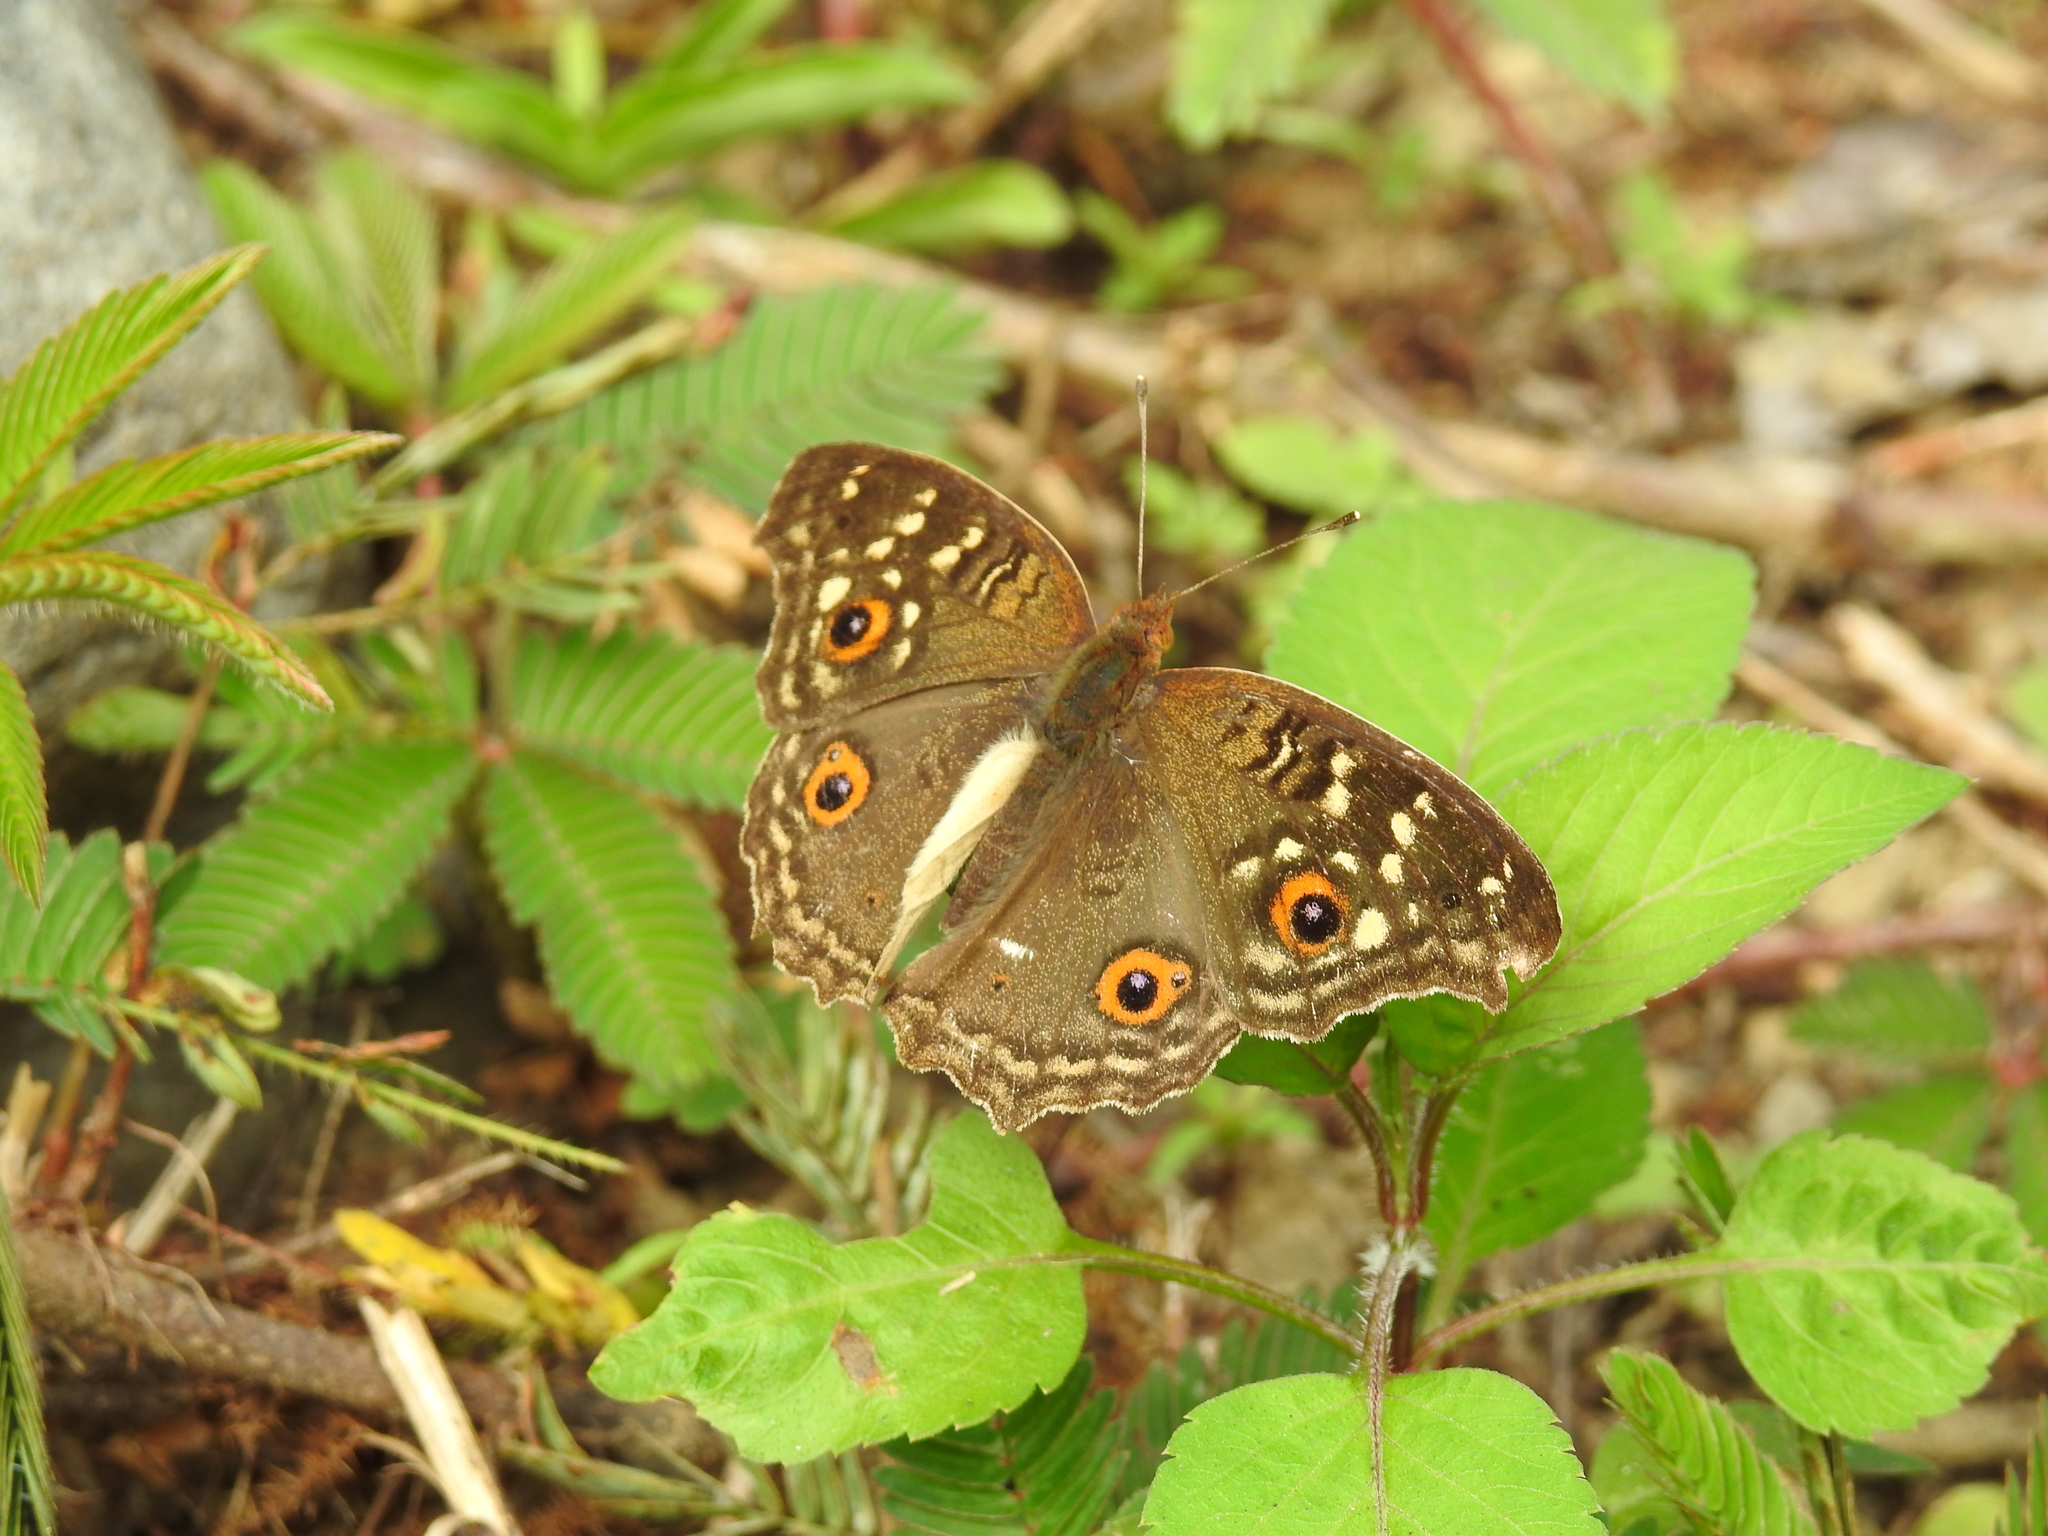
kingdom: Animalia
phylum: Arthropoda
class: Insecta
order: Lepidoptera
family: Nymphalidae
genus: Junonia
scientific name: Junonia lemonias
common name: Lemon pansy
